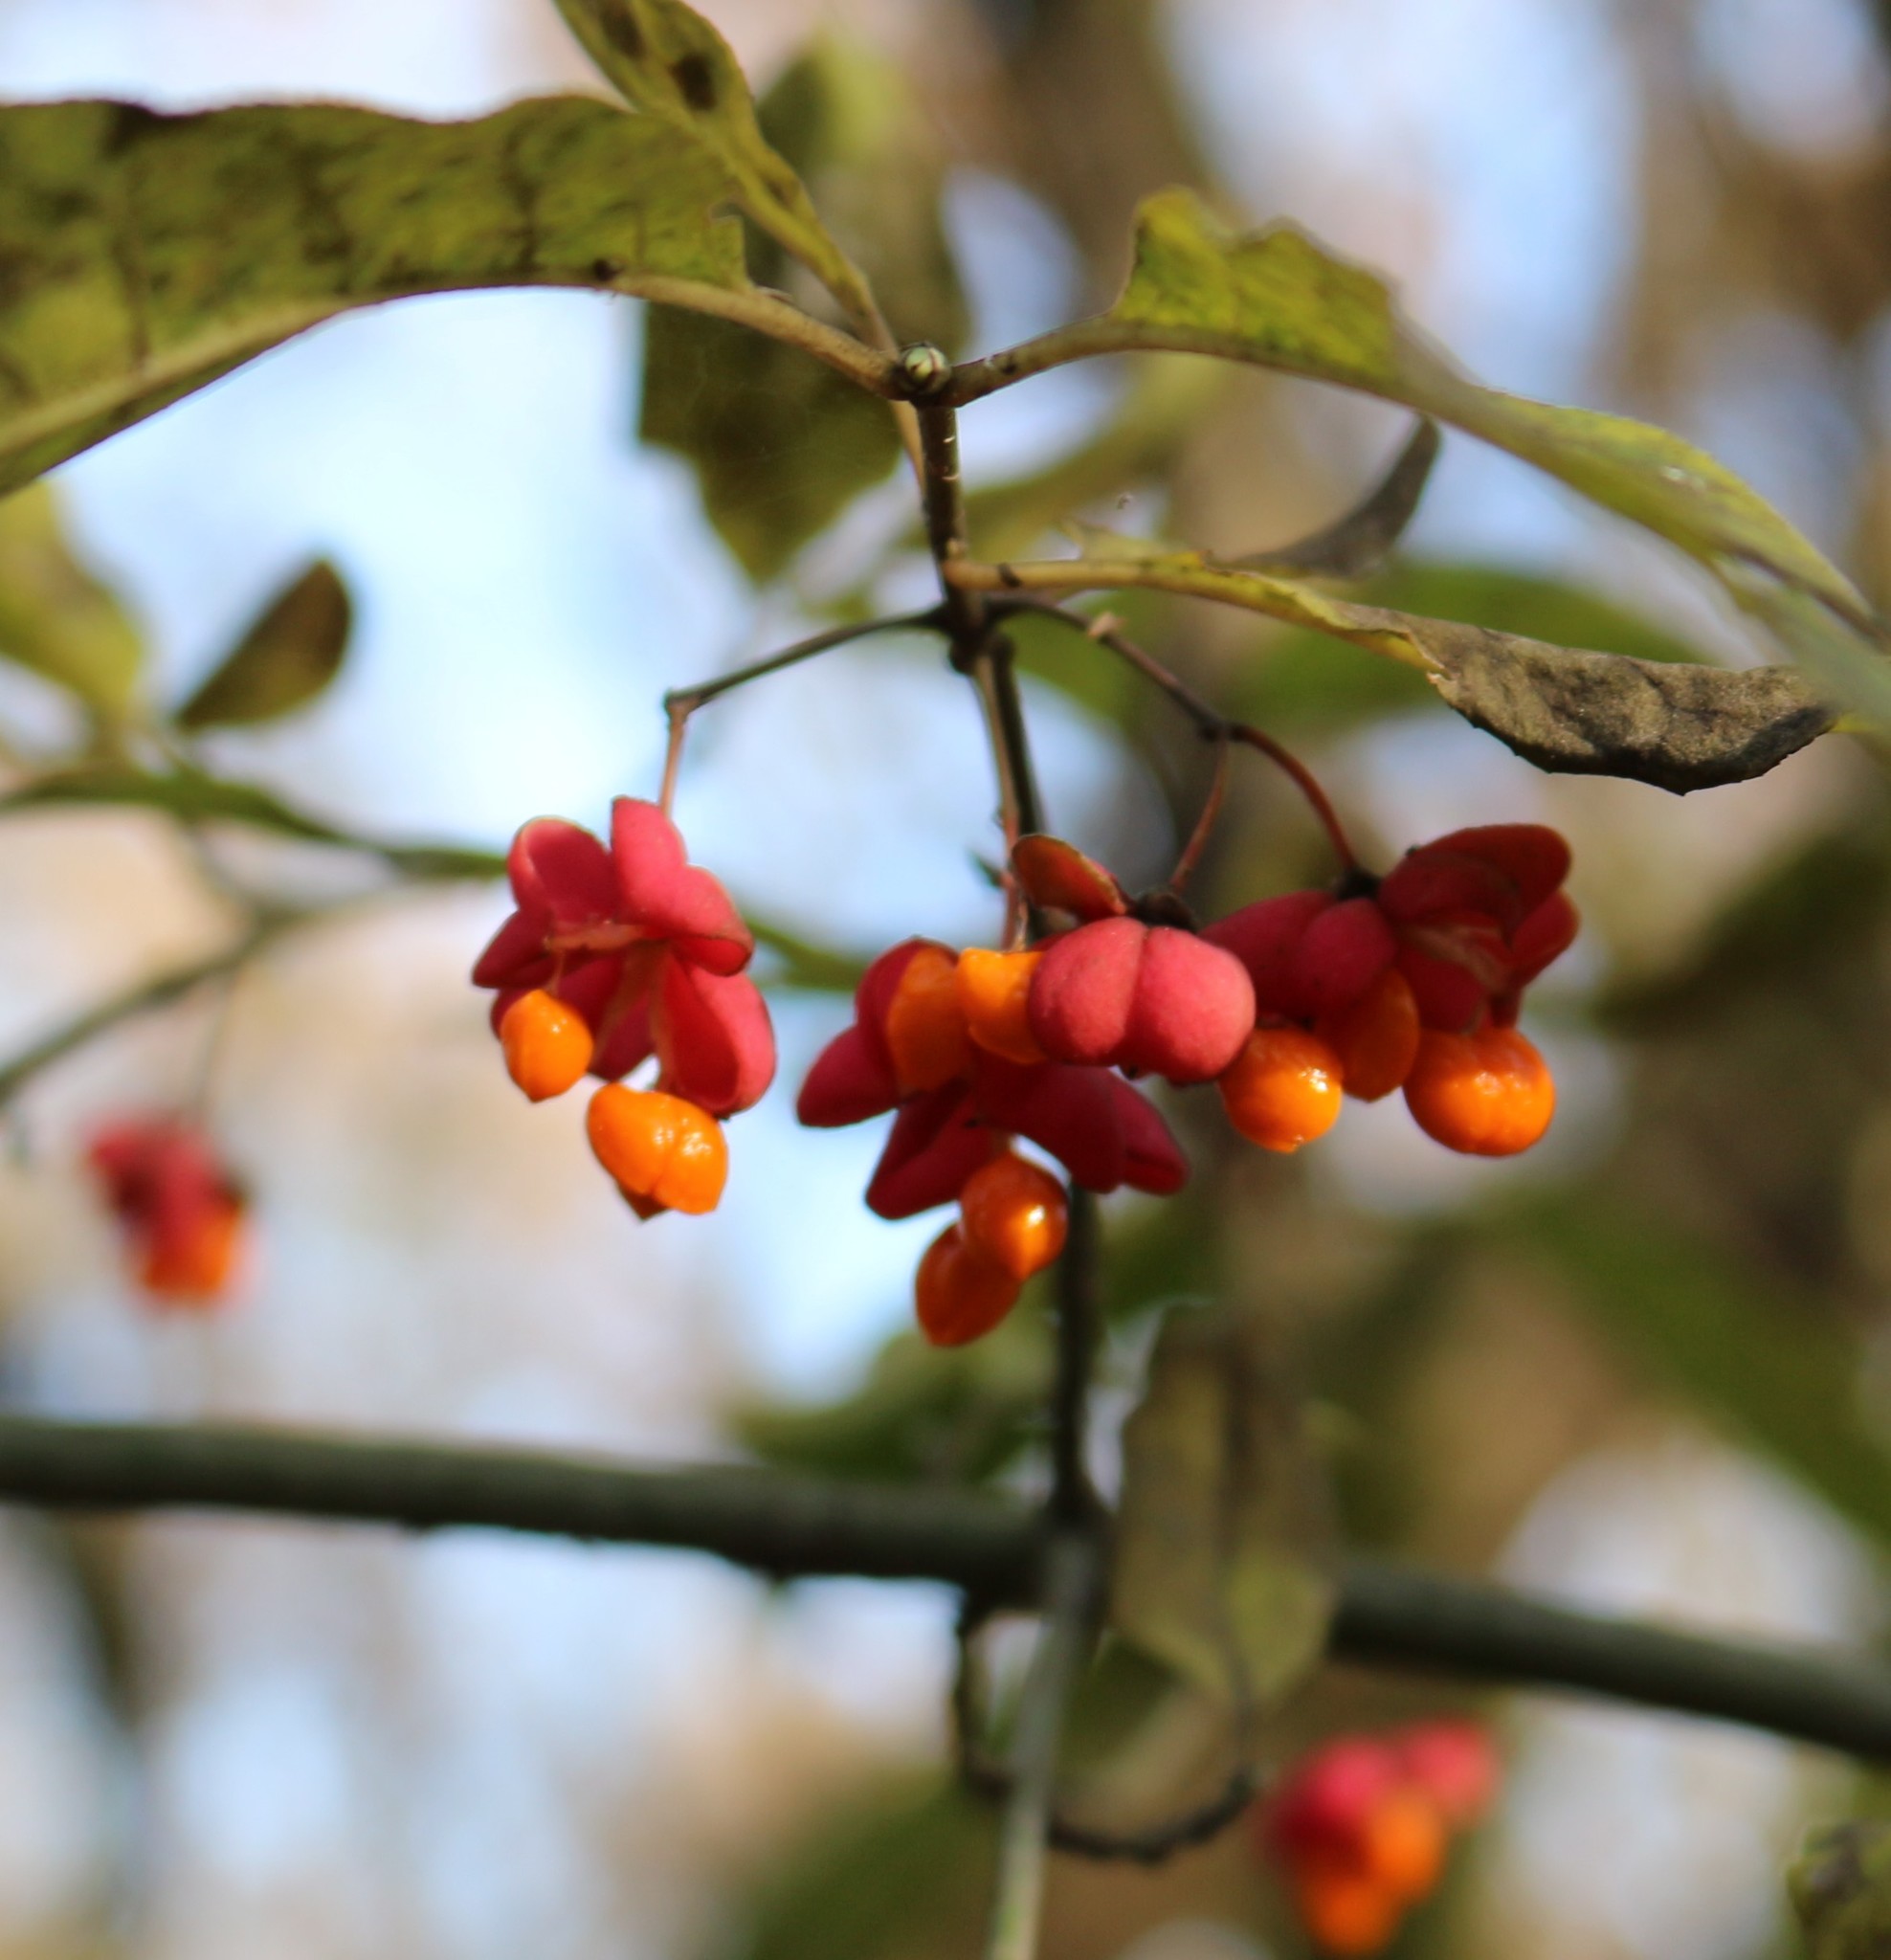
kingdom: Plantae
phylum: Tracheophyta
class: Magnoliopsida
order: Celastrales
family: Celastraceae
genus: Euonymus
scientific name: Euonymus europaeus
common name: Spindle
